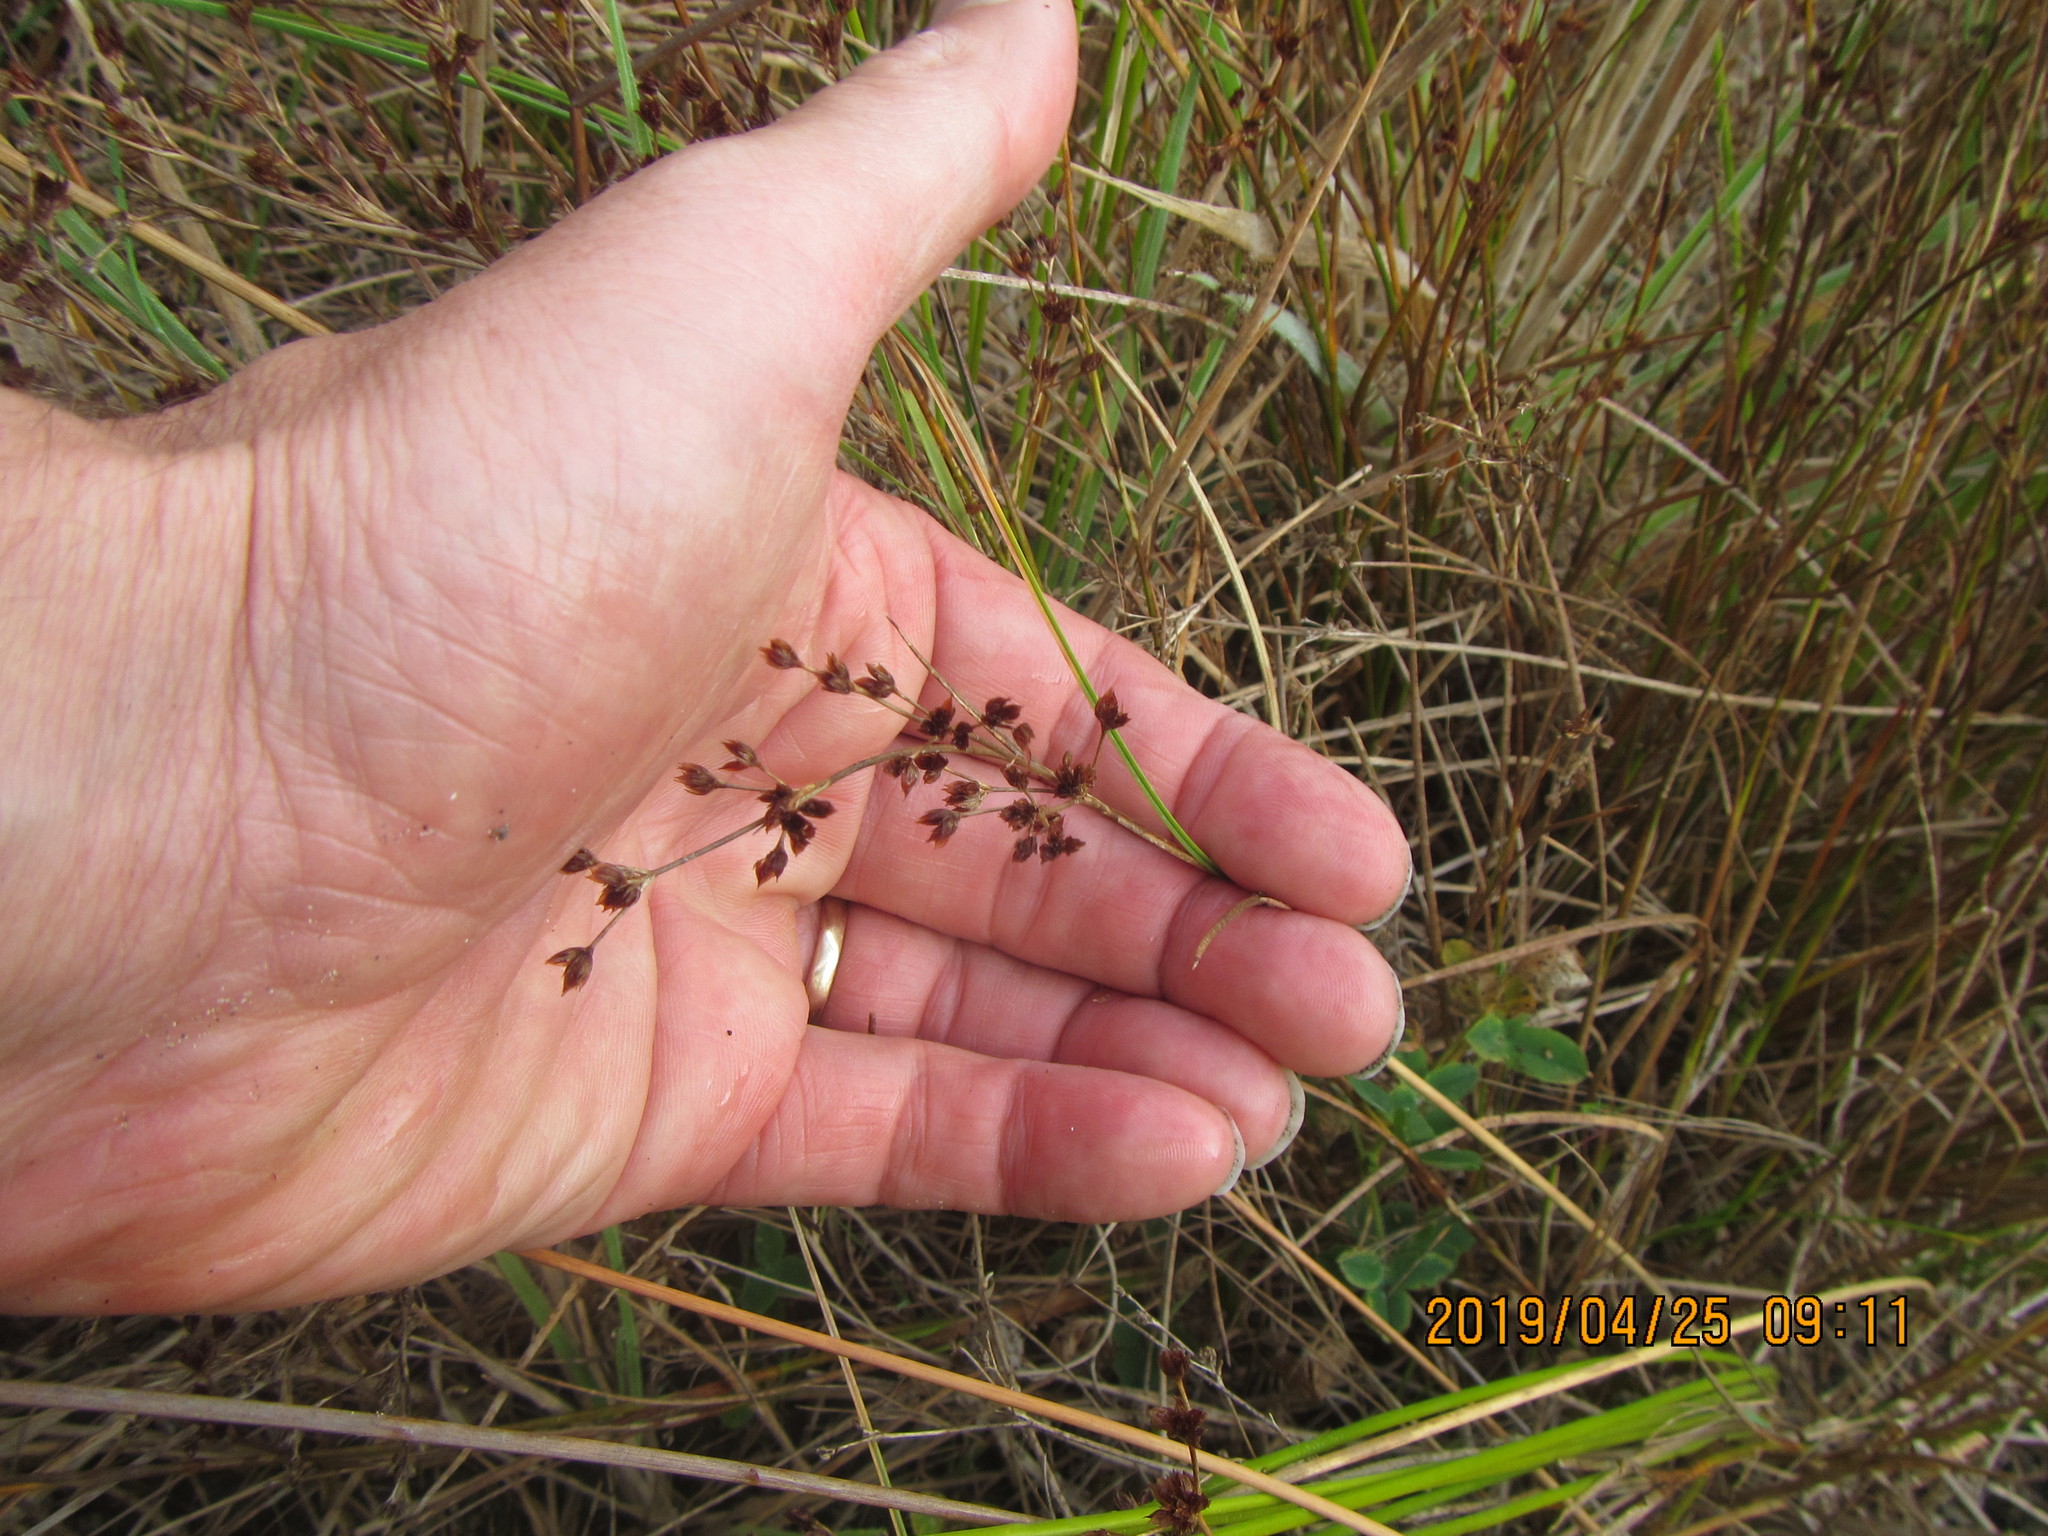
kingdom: Plantae
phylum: Tracheophyta
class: Liliopsida
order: Poales
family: Juncaceae
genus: Juncus
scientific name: Juncus articulatus
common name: Jointed rush
